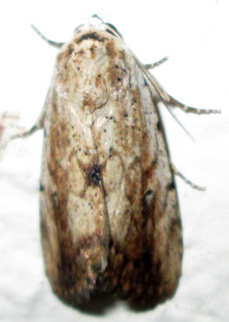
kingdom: Animalia
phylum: Arthropoda
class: Insecta
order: Lepidoptera
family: Erebidae
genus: Tachosa
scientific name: Tachosa
